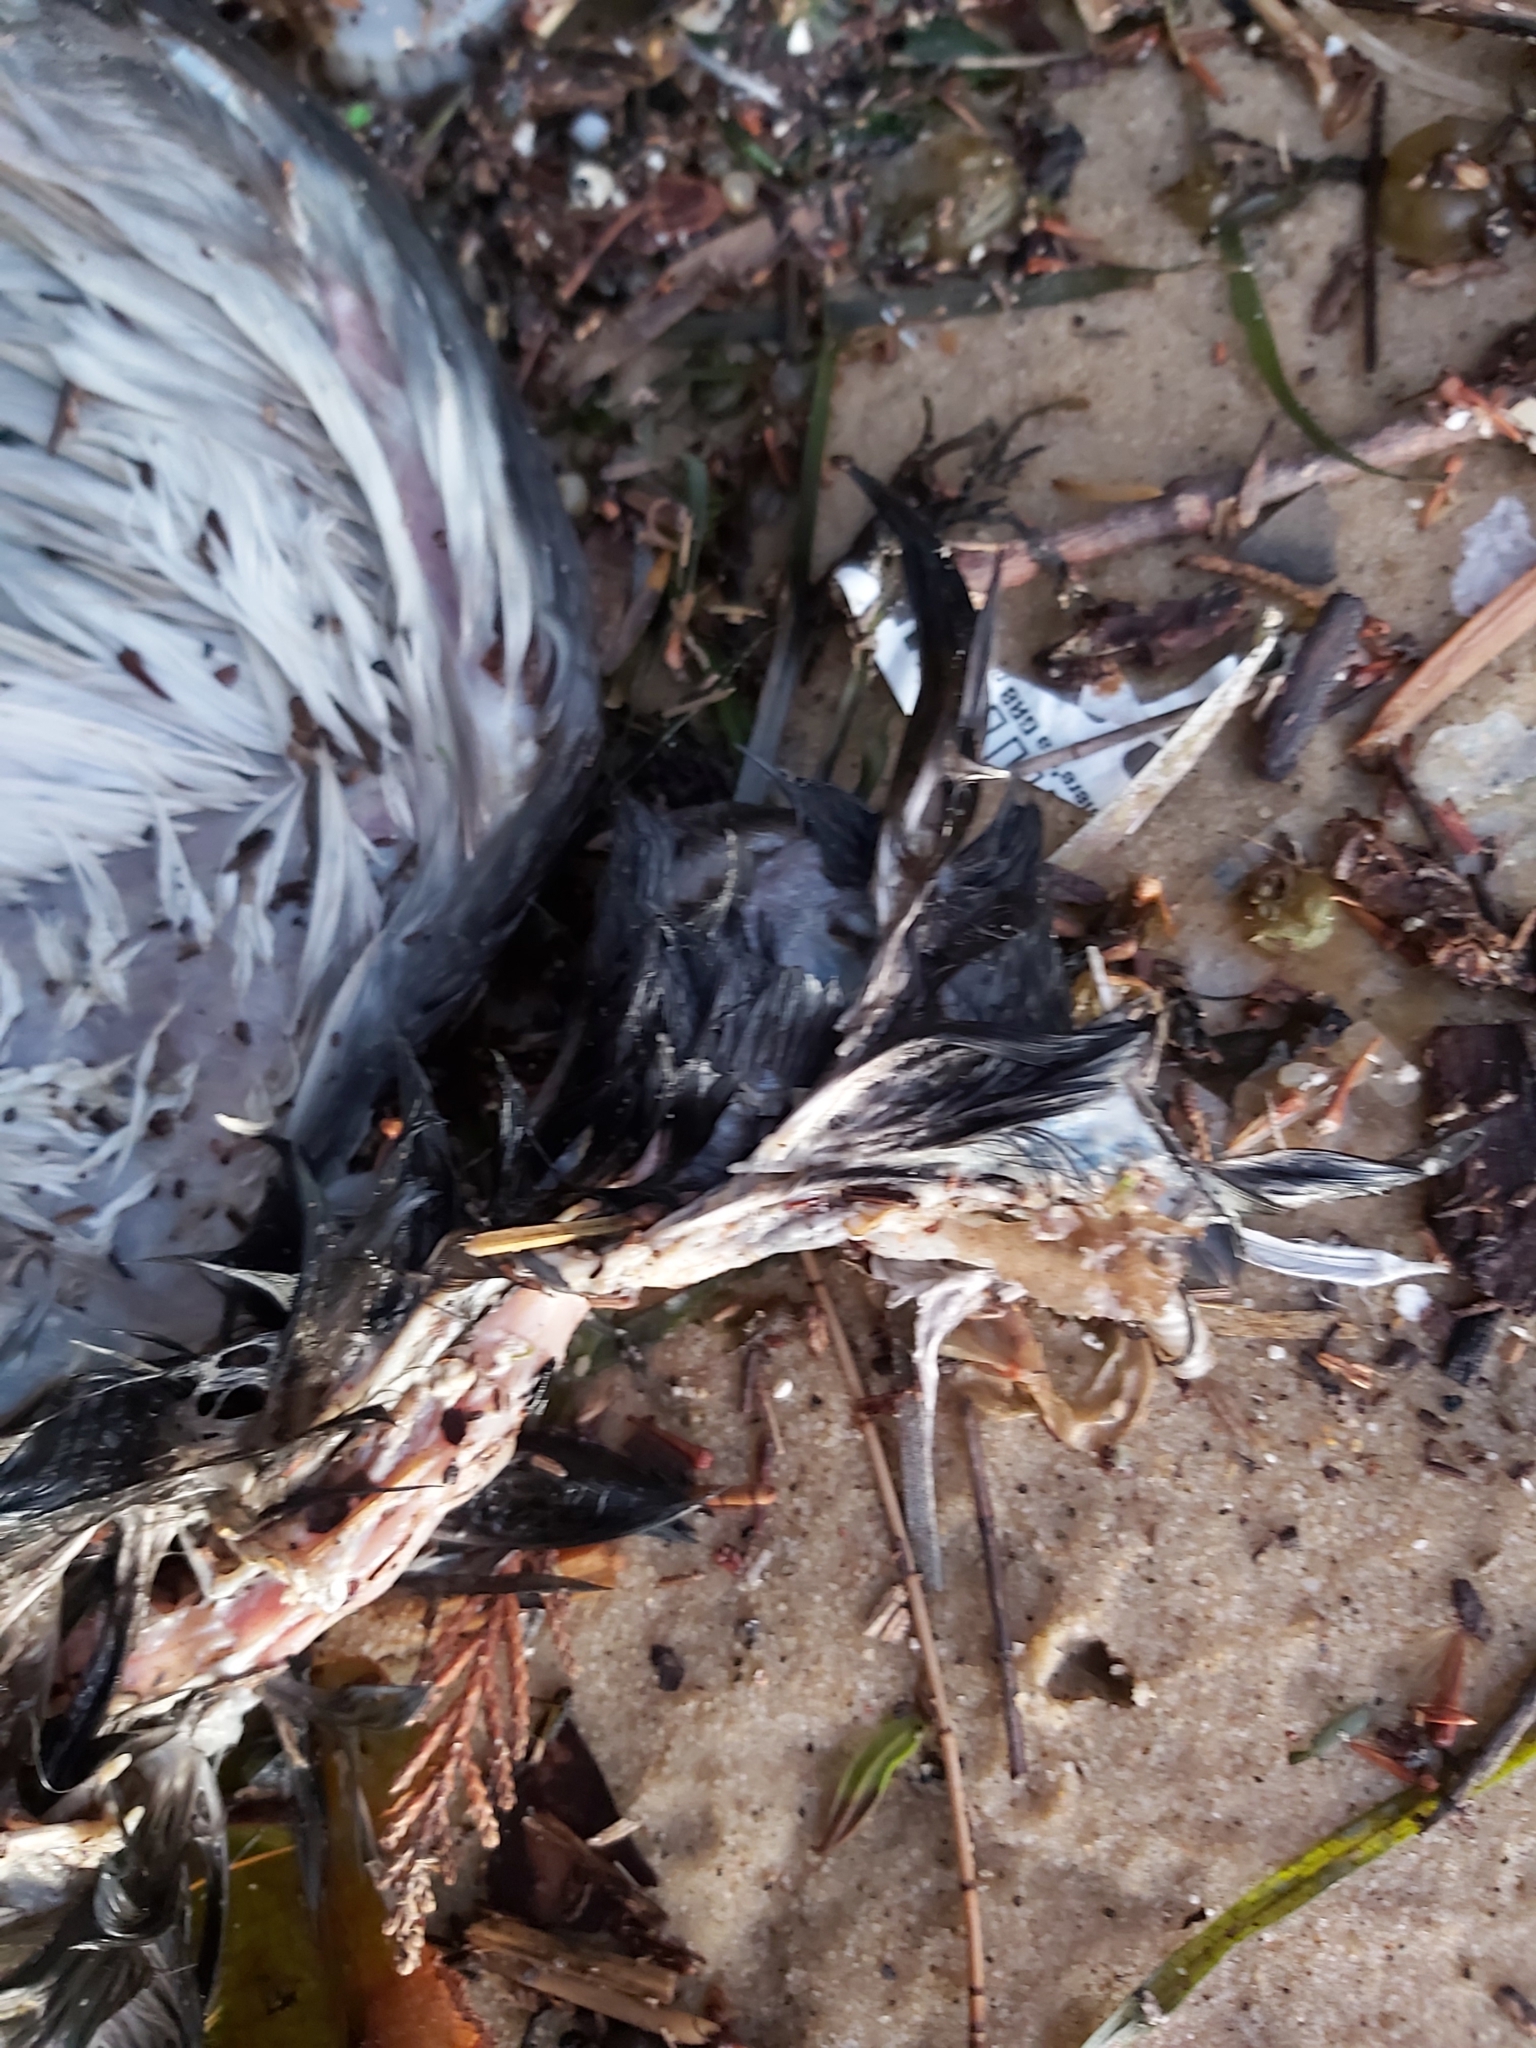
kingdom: Animalia
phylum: Chordata
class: Aves
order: Columbiformes
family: Columbidae
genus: Columba
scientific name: Columba livia
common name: Rock pigeon
